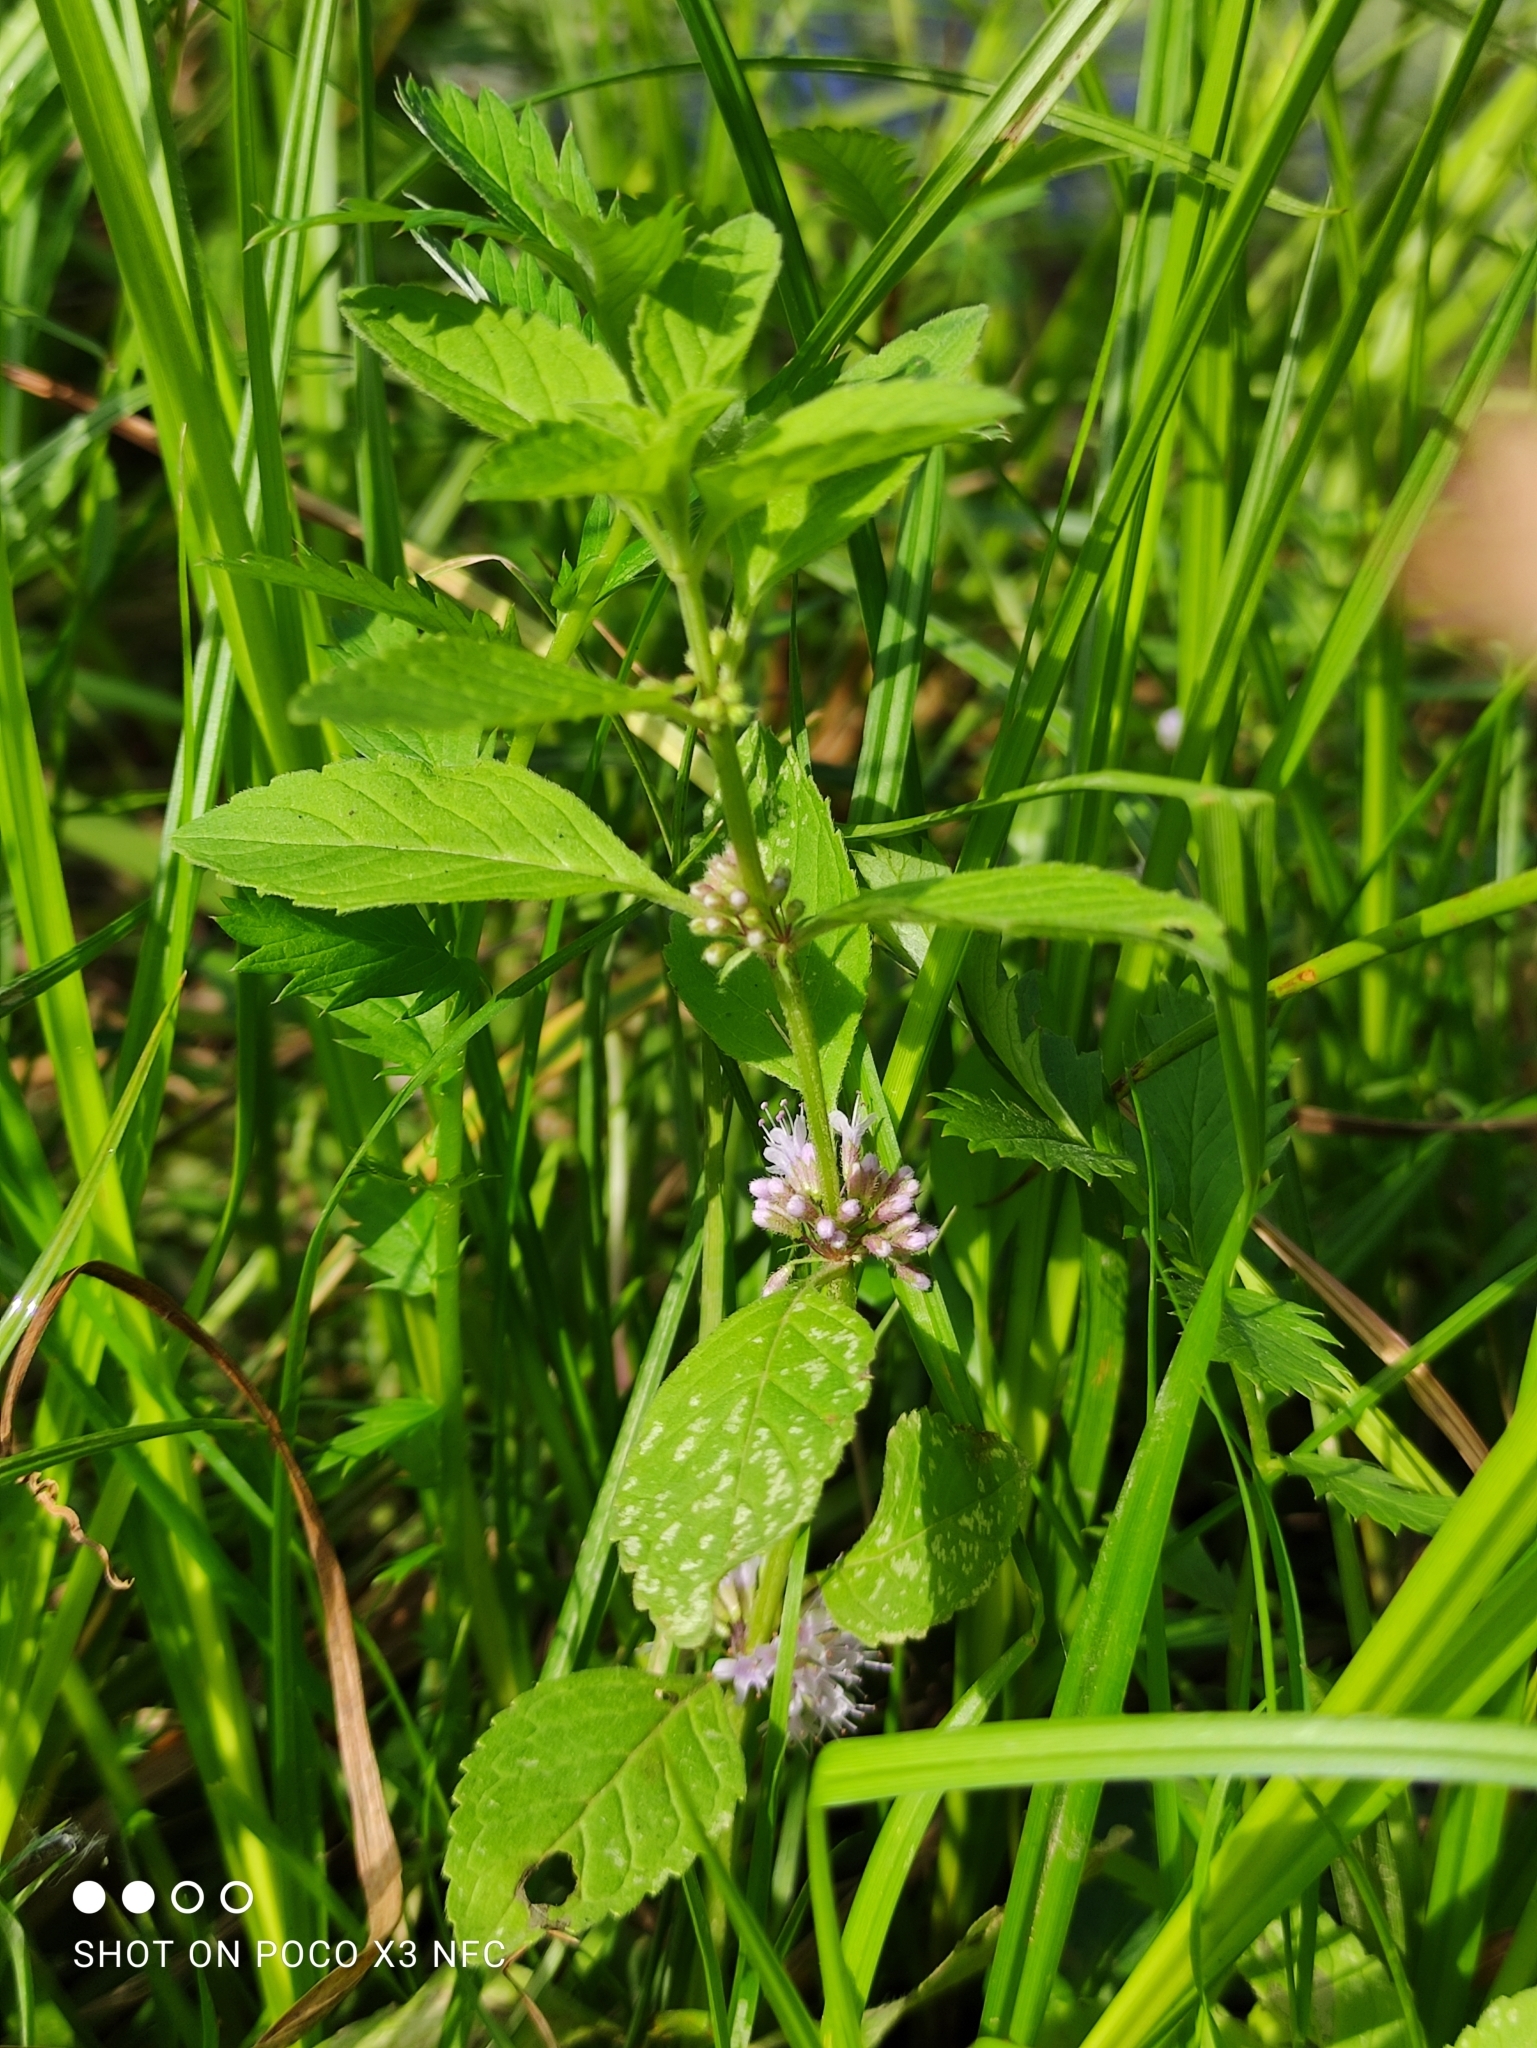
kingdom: Plantae
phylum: Tracheophyta
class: Magnoliopsida
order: Lamiales
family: Lamiaceae
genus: Mentha
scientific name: Mentha arvensis
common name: Corn mint
